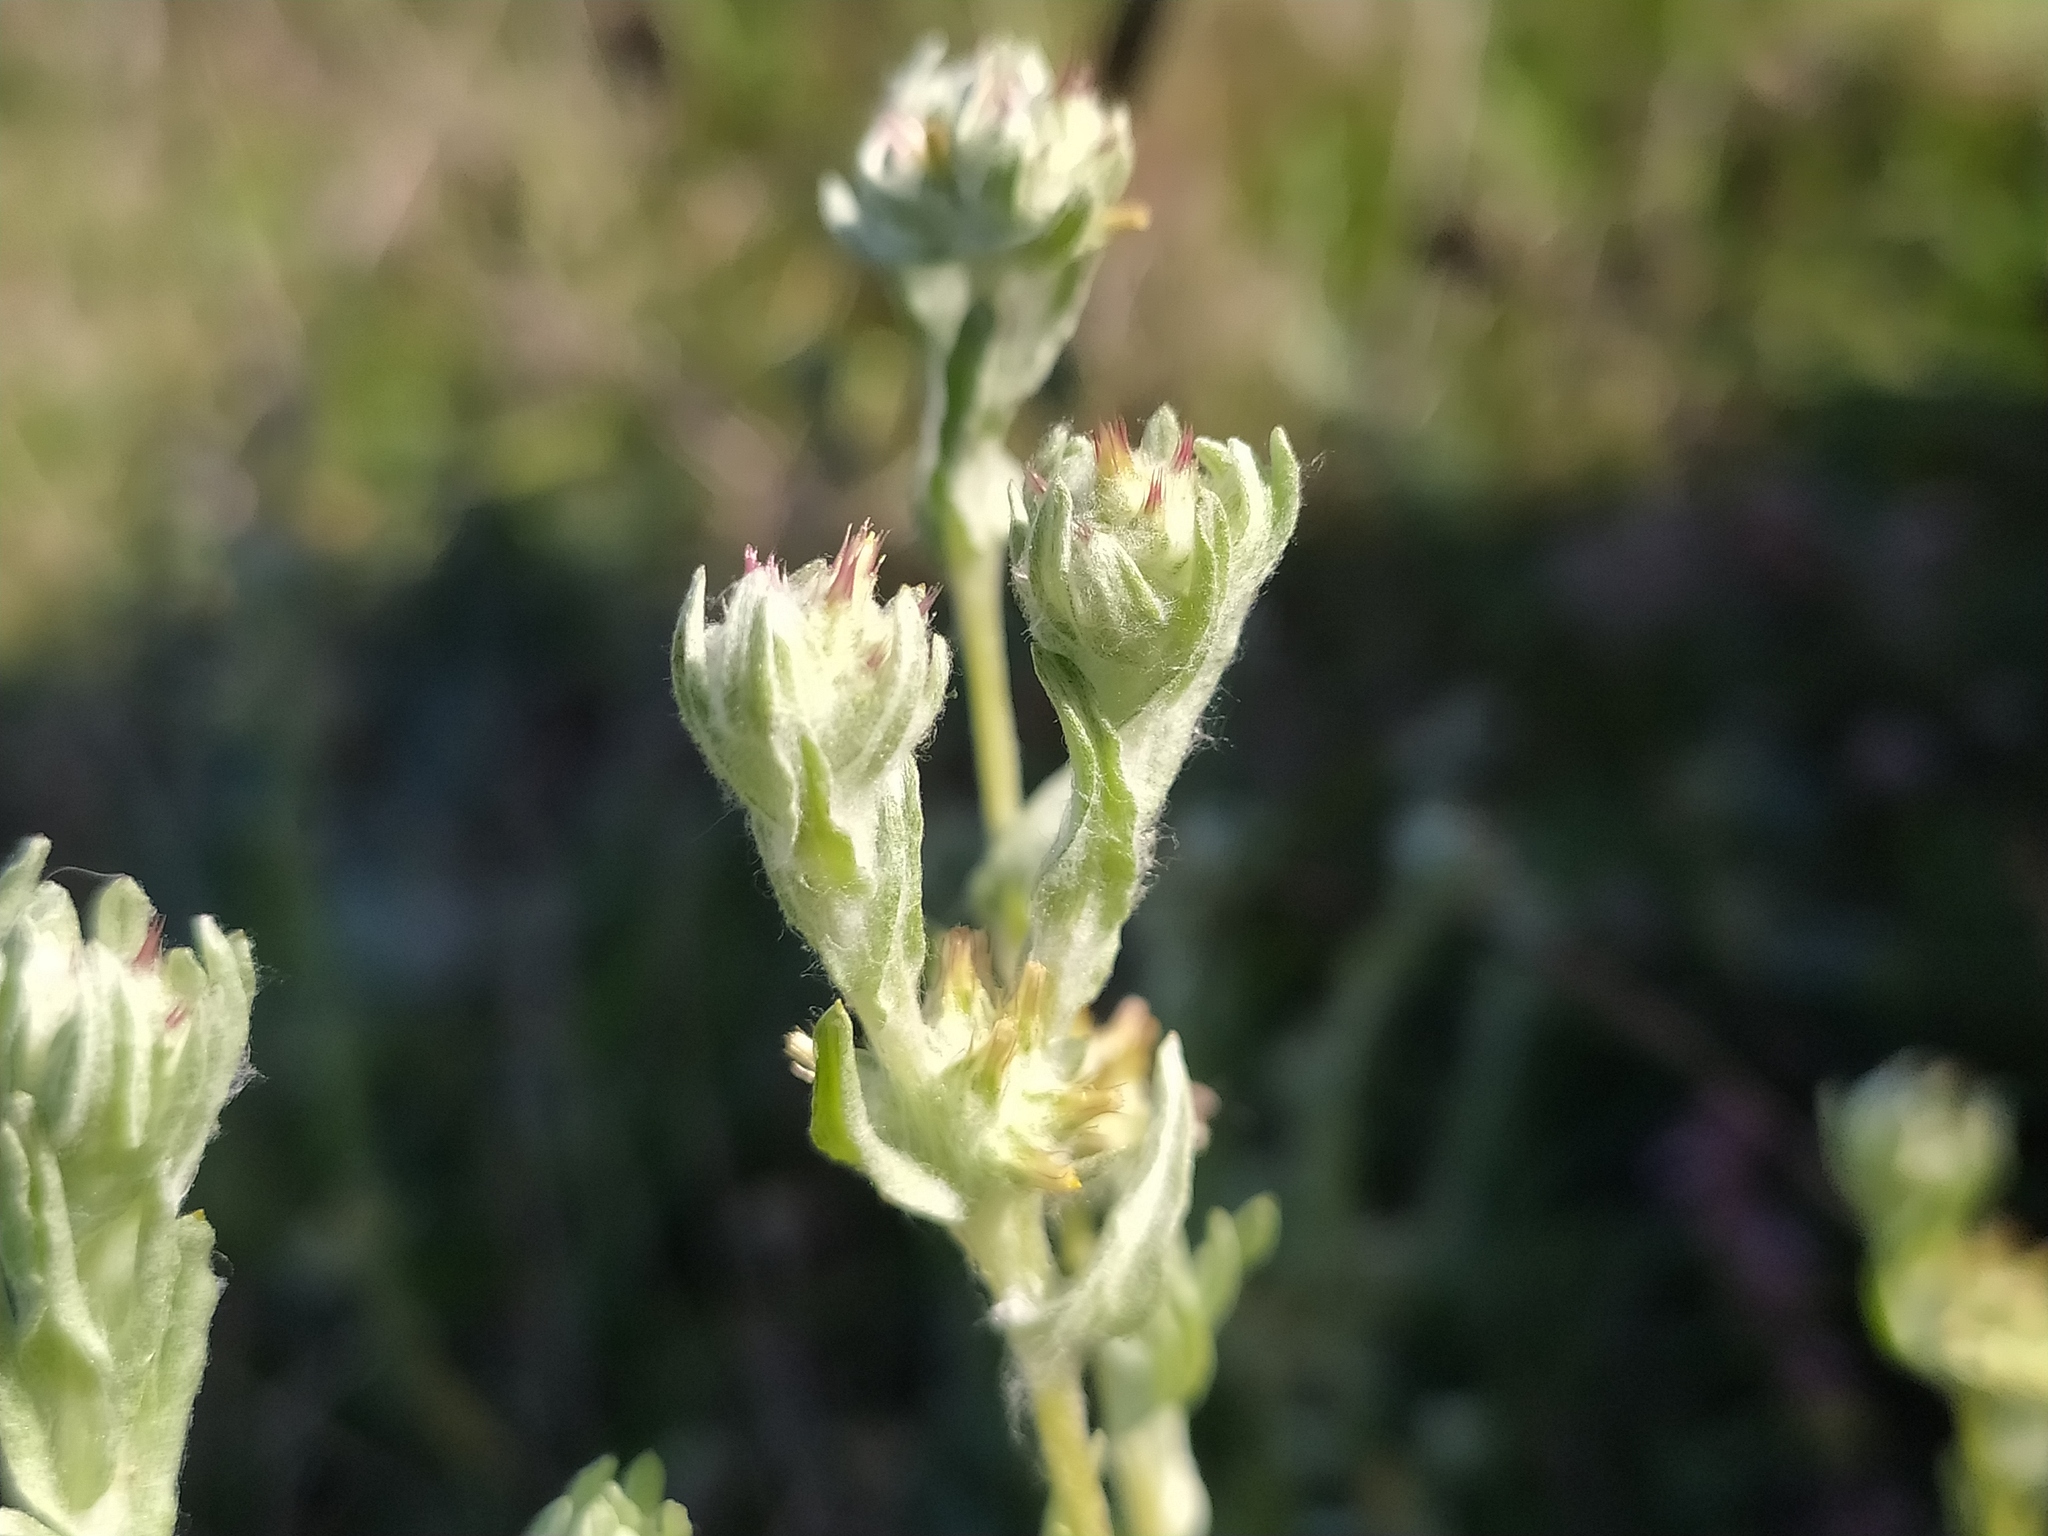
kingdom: Plantae
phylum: Tracheophyta
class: Magnoliopsida
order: Asterales
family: Asteraceae
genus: Filago
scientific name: Filago lutescens
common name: Red-tipped cudweed
